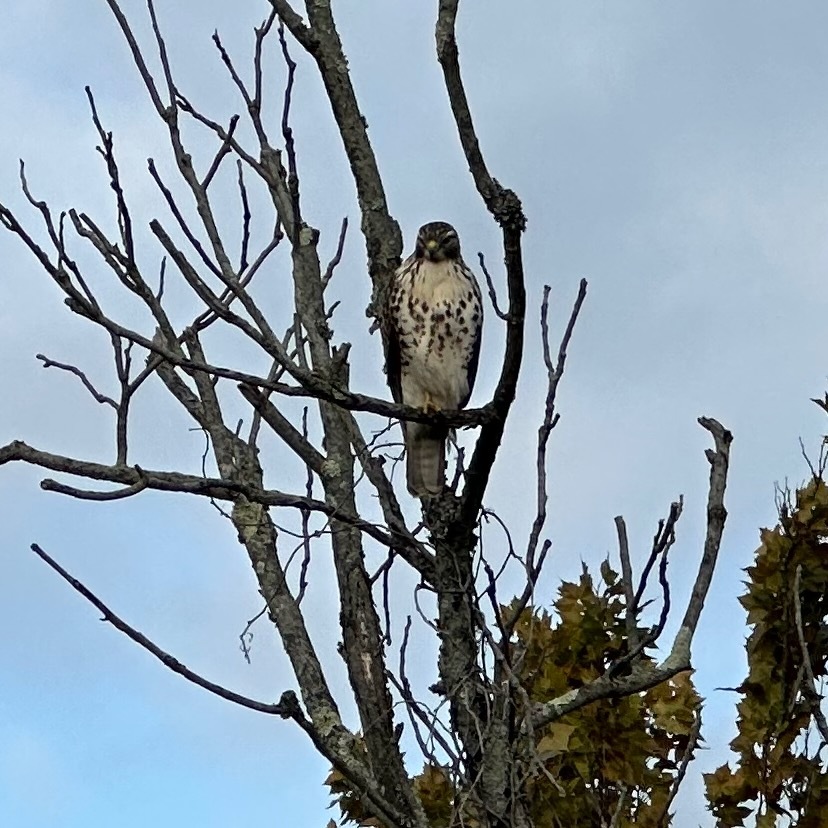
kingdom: Animalia
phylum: Chordata
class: Aves
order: Accipitriformes
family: Accipitridae
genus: Buteo
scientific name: Buteo jamaicensis
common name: Red-tailed hawk
